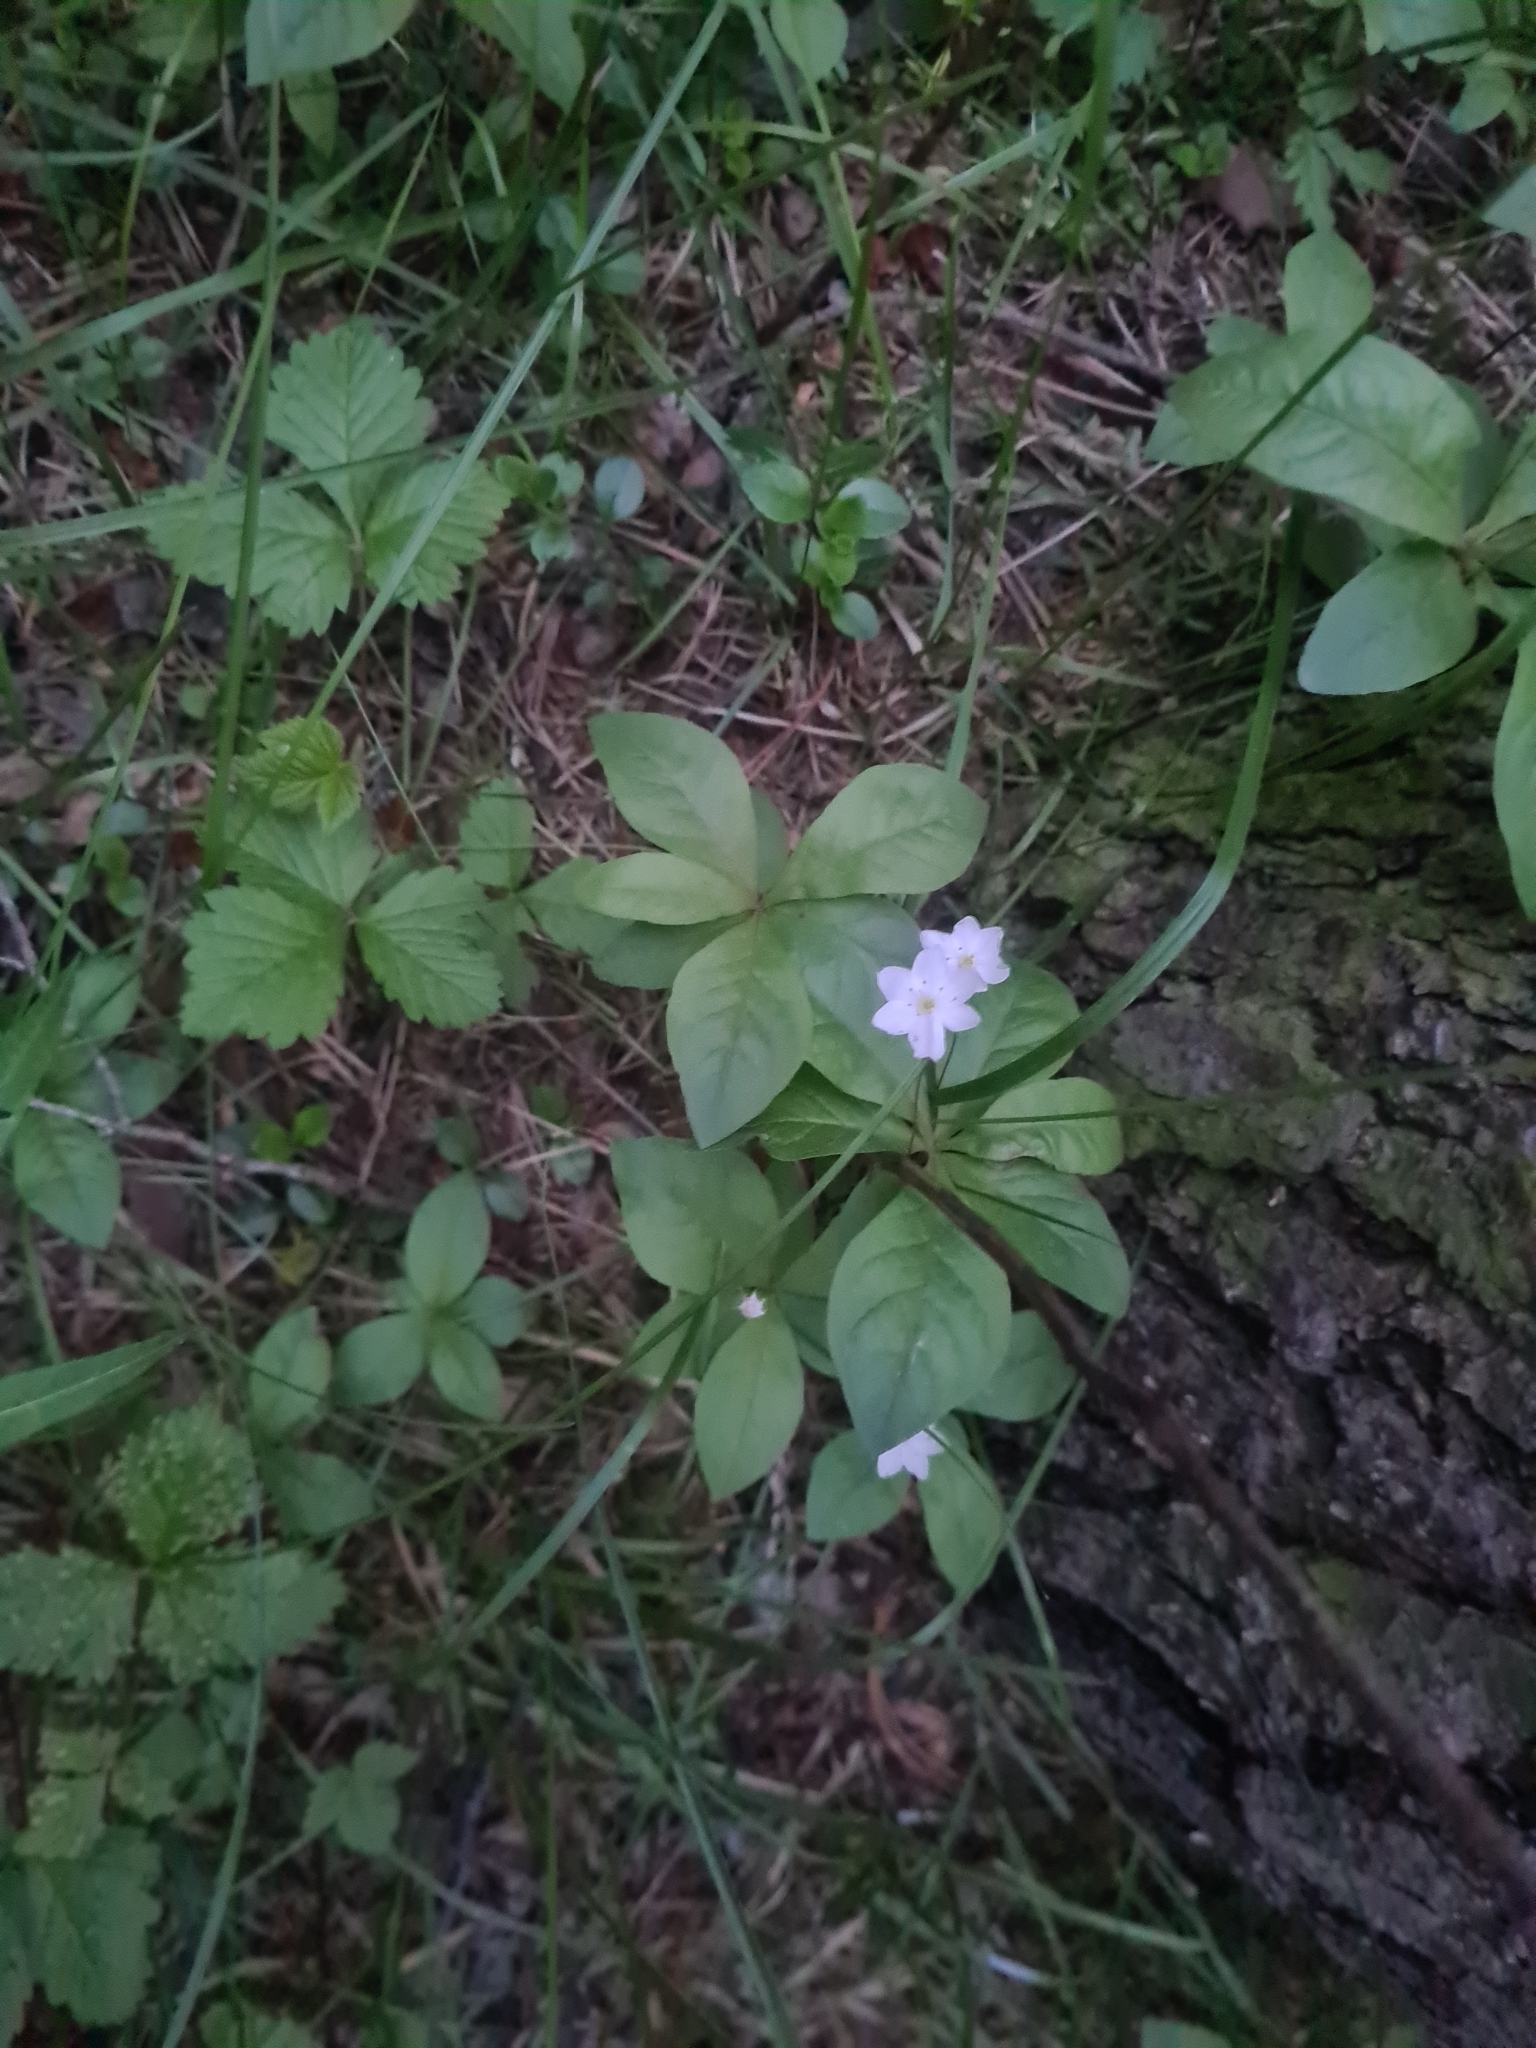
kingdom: Plantae
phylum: Tracheophyta
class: Magnoliopsida
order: Ericales
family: Primulaceae
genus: Lysimachia
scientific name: Lysimachia europaea
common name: Arctic starflower
